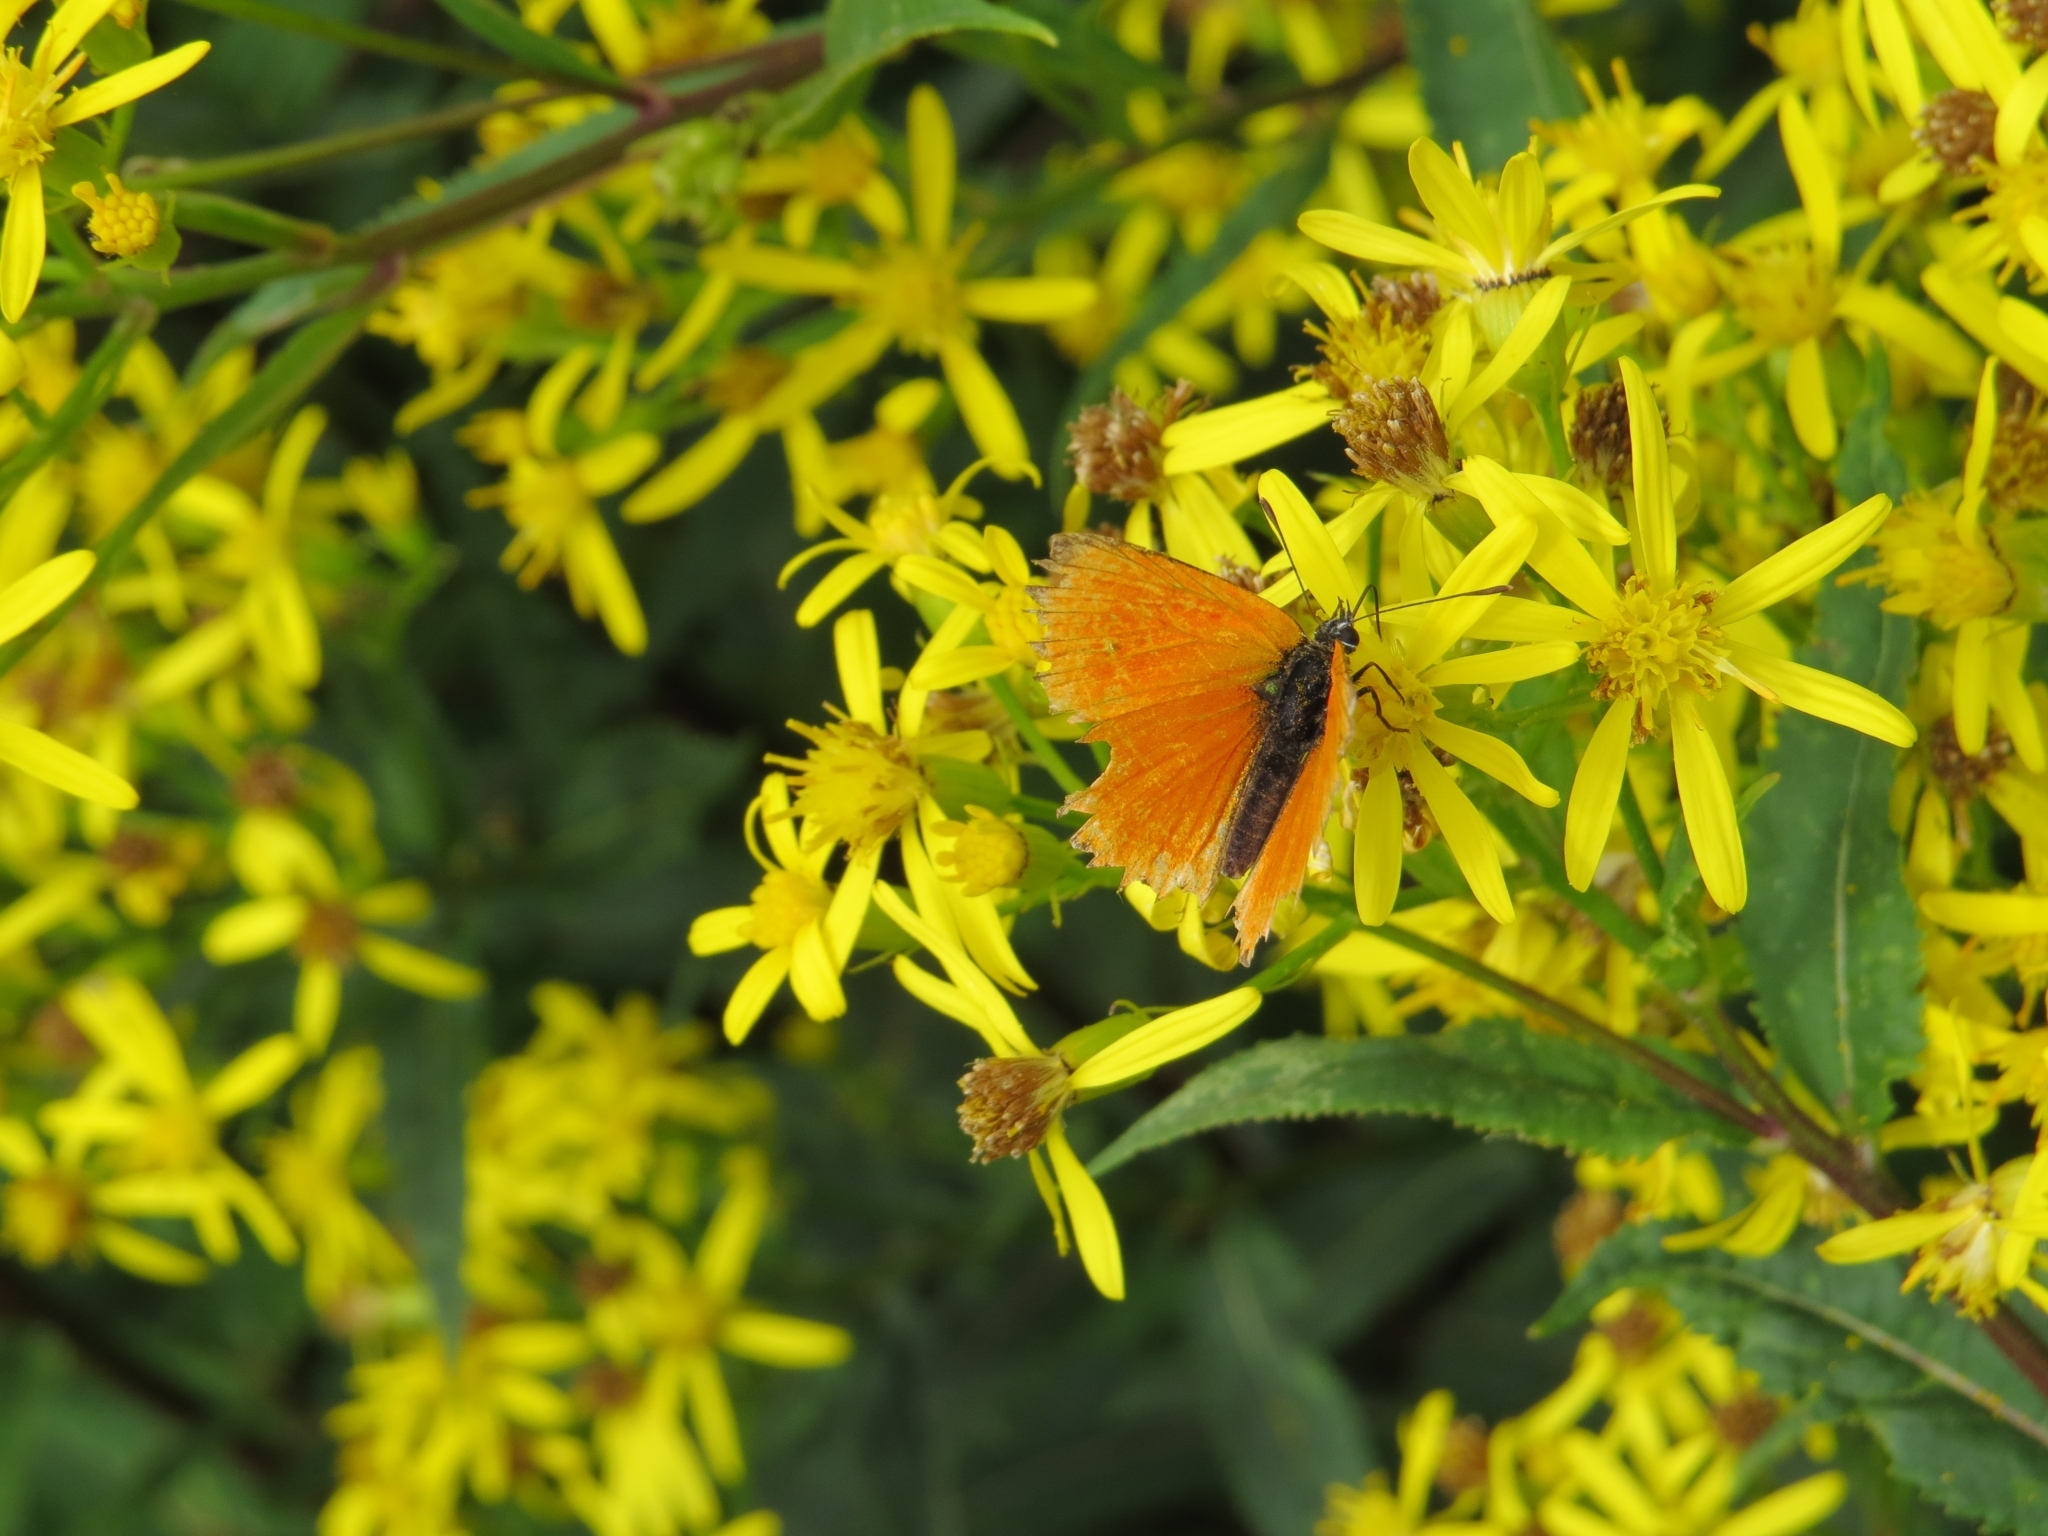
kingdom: Animalia
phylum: Arthropoda
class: Insecta
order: Lepidoptera
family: Lycaenidae
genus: Lycaena
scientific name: Lycaena virgaureae
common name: Scarce copper
